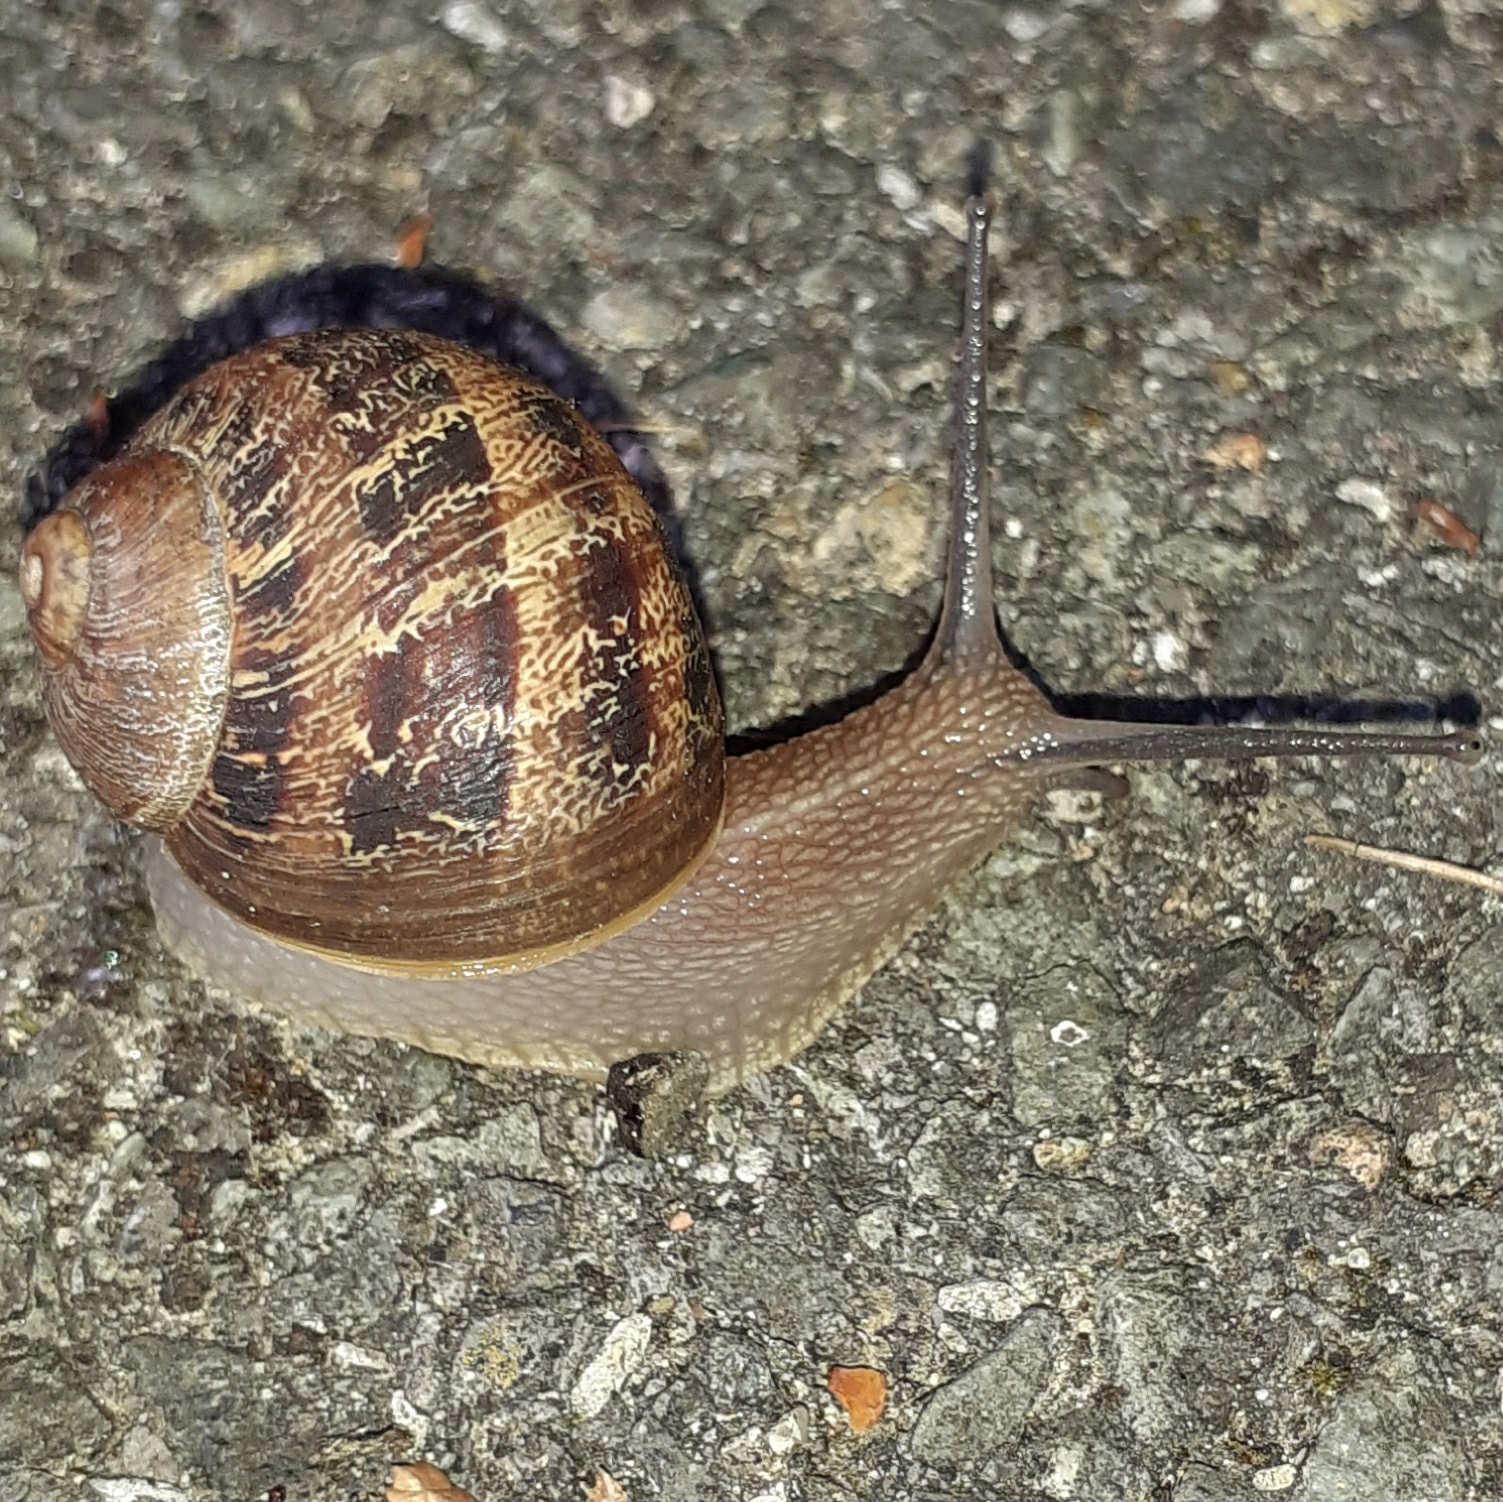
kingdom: Animalia
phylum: Mollusca
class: Gastropoda
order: Stylommatophora
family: Helicidae
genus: Cornu
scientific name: Cornu aspersum
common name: Brown garden snail
